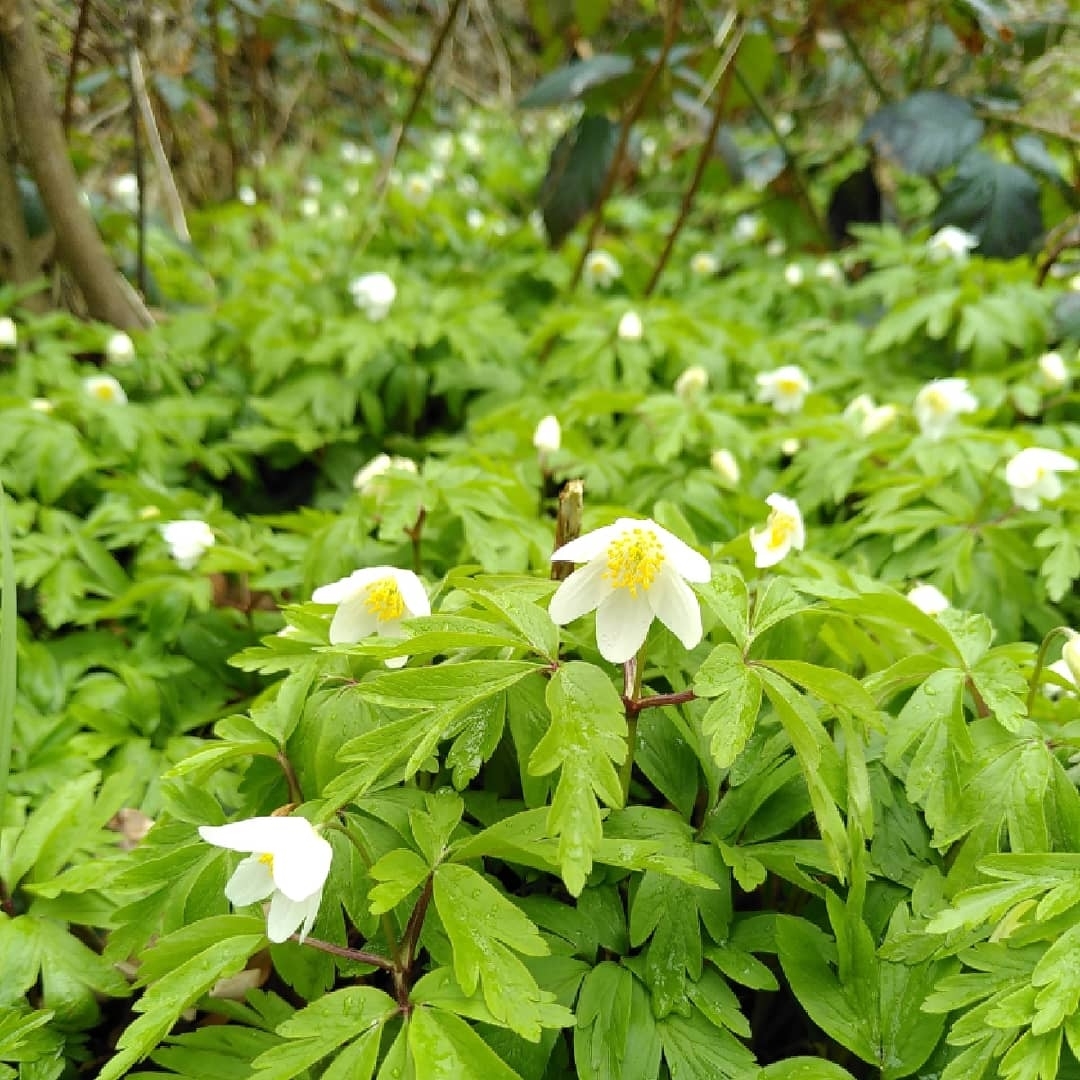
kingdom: Plantae
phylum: Tracheophyta
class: Magnoliopsida
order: Ranunculales
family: Ranunculaceae
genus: Anemone
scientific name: Anemone nemorosa
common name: Wood anemone
